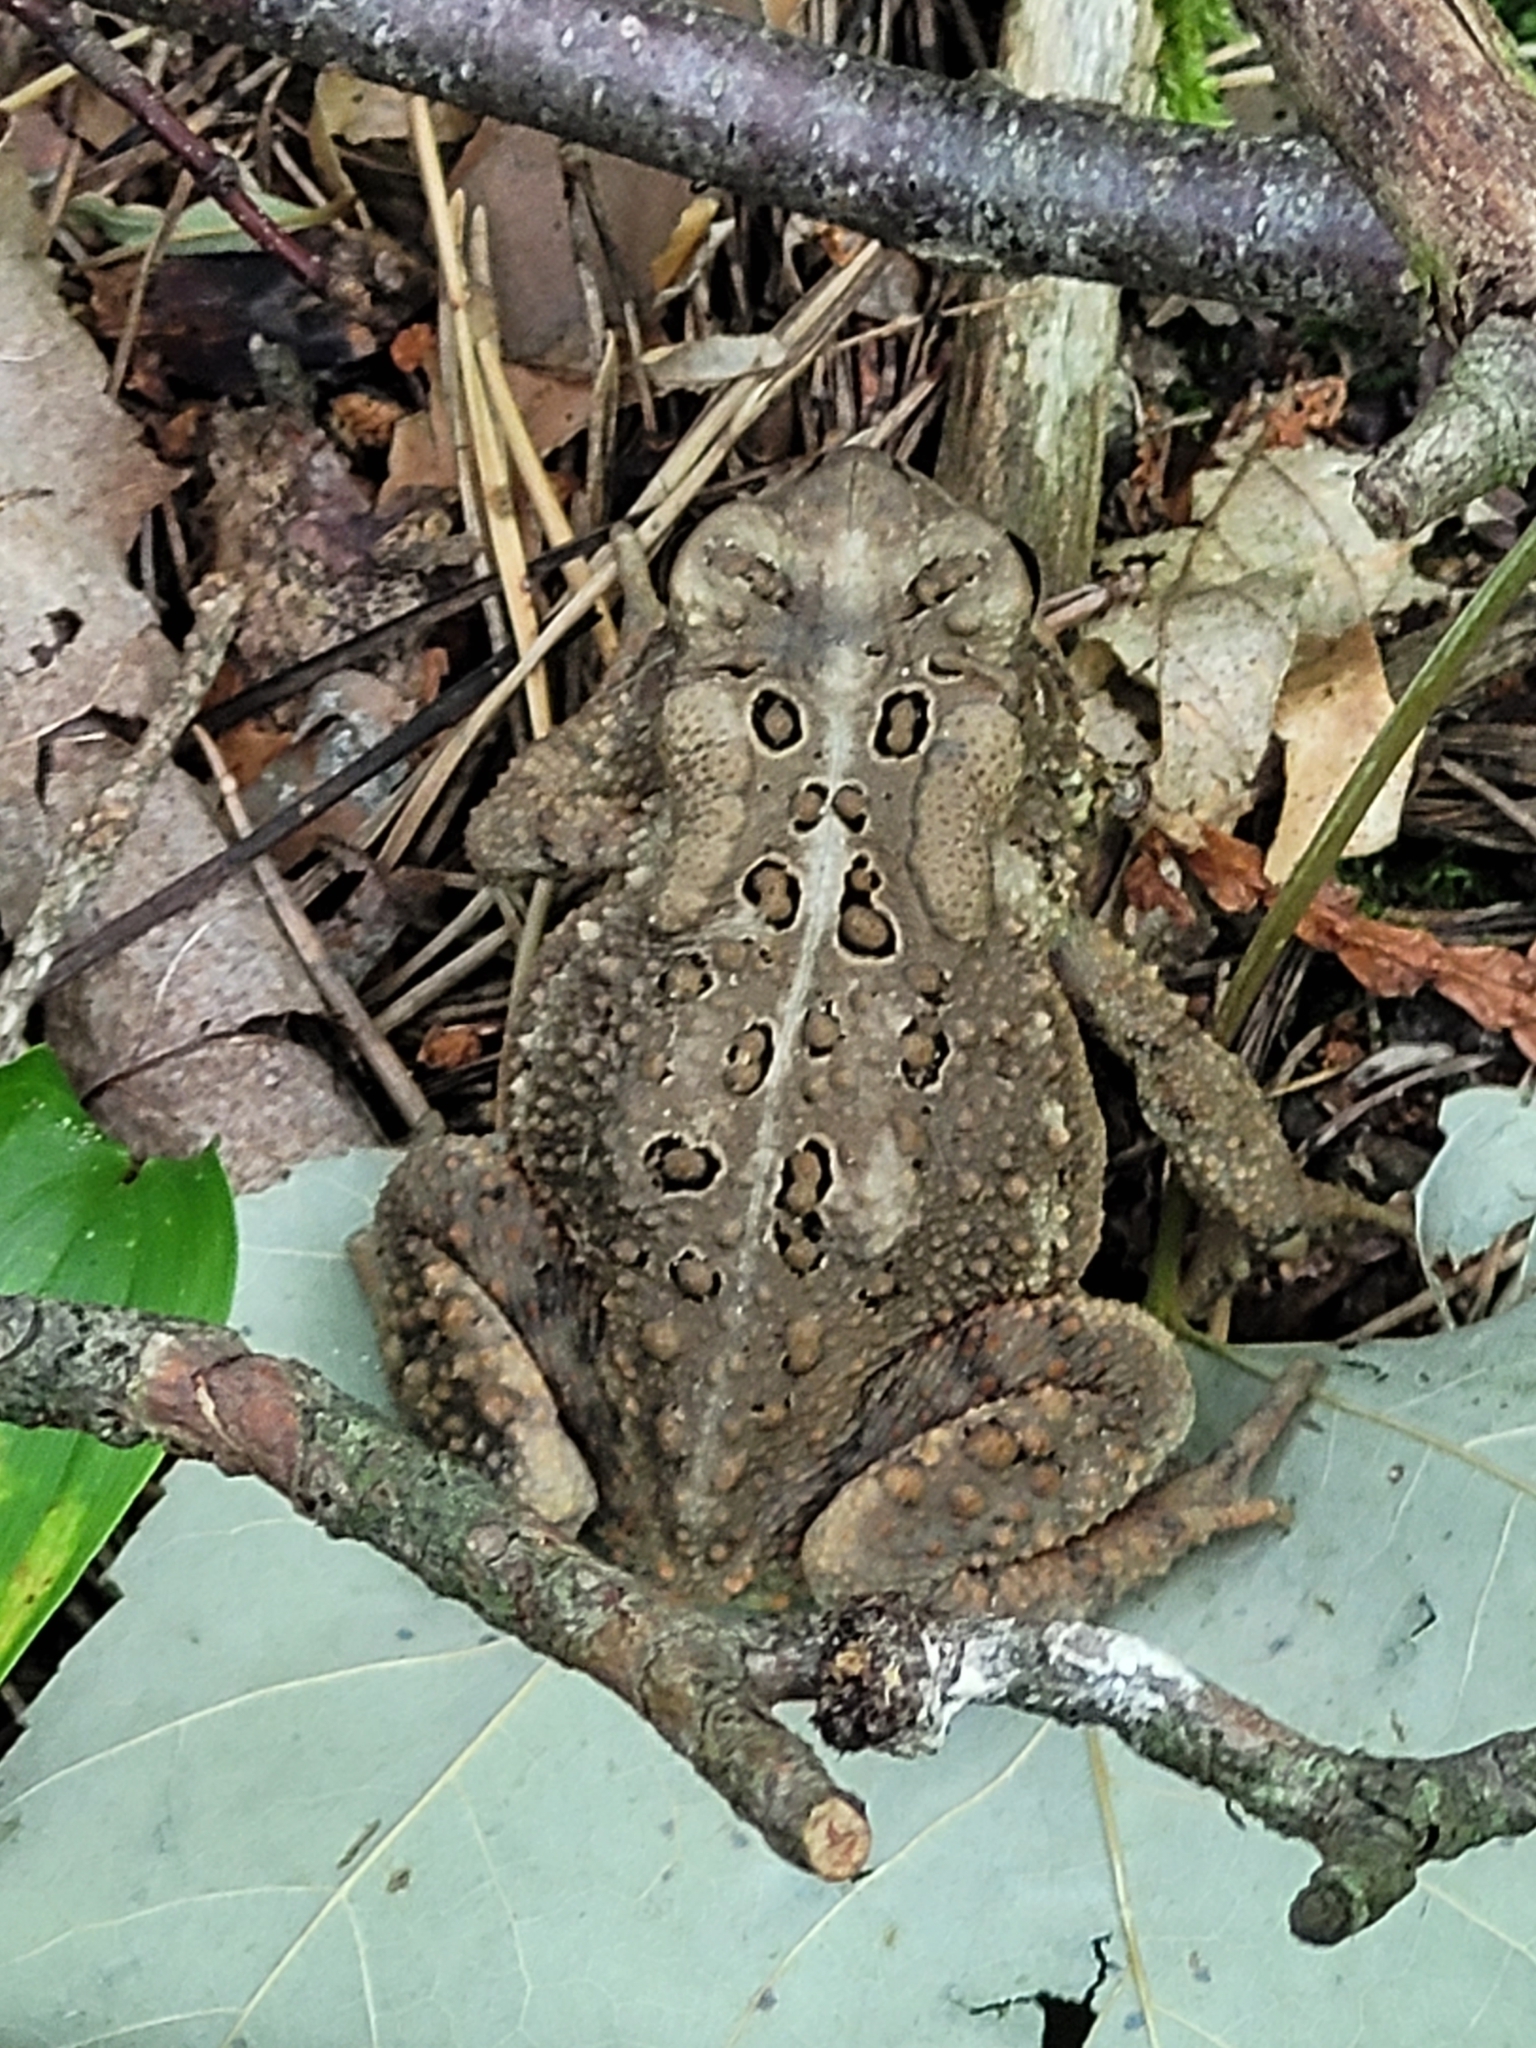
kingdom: Animalia
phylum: Chordata
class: Amphibia
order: Anura
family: Bufonidae
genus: Anaxyrus
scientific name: Anaxyrus americanus
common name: American toad
